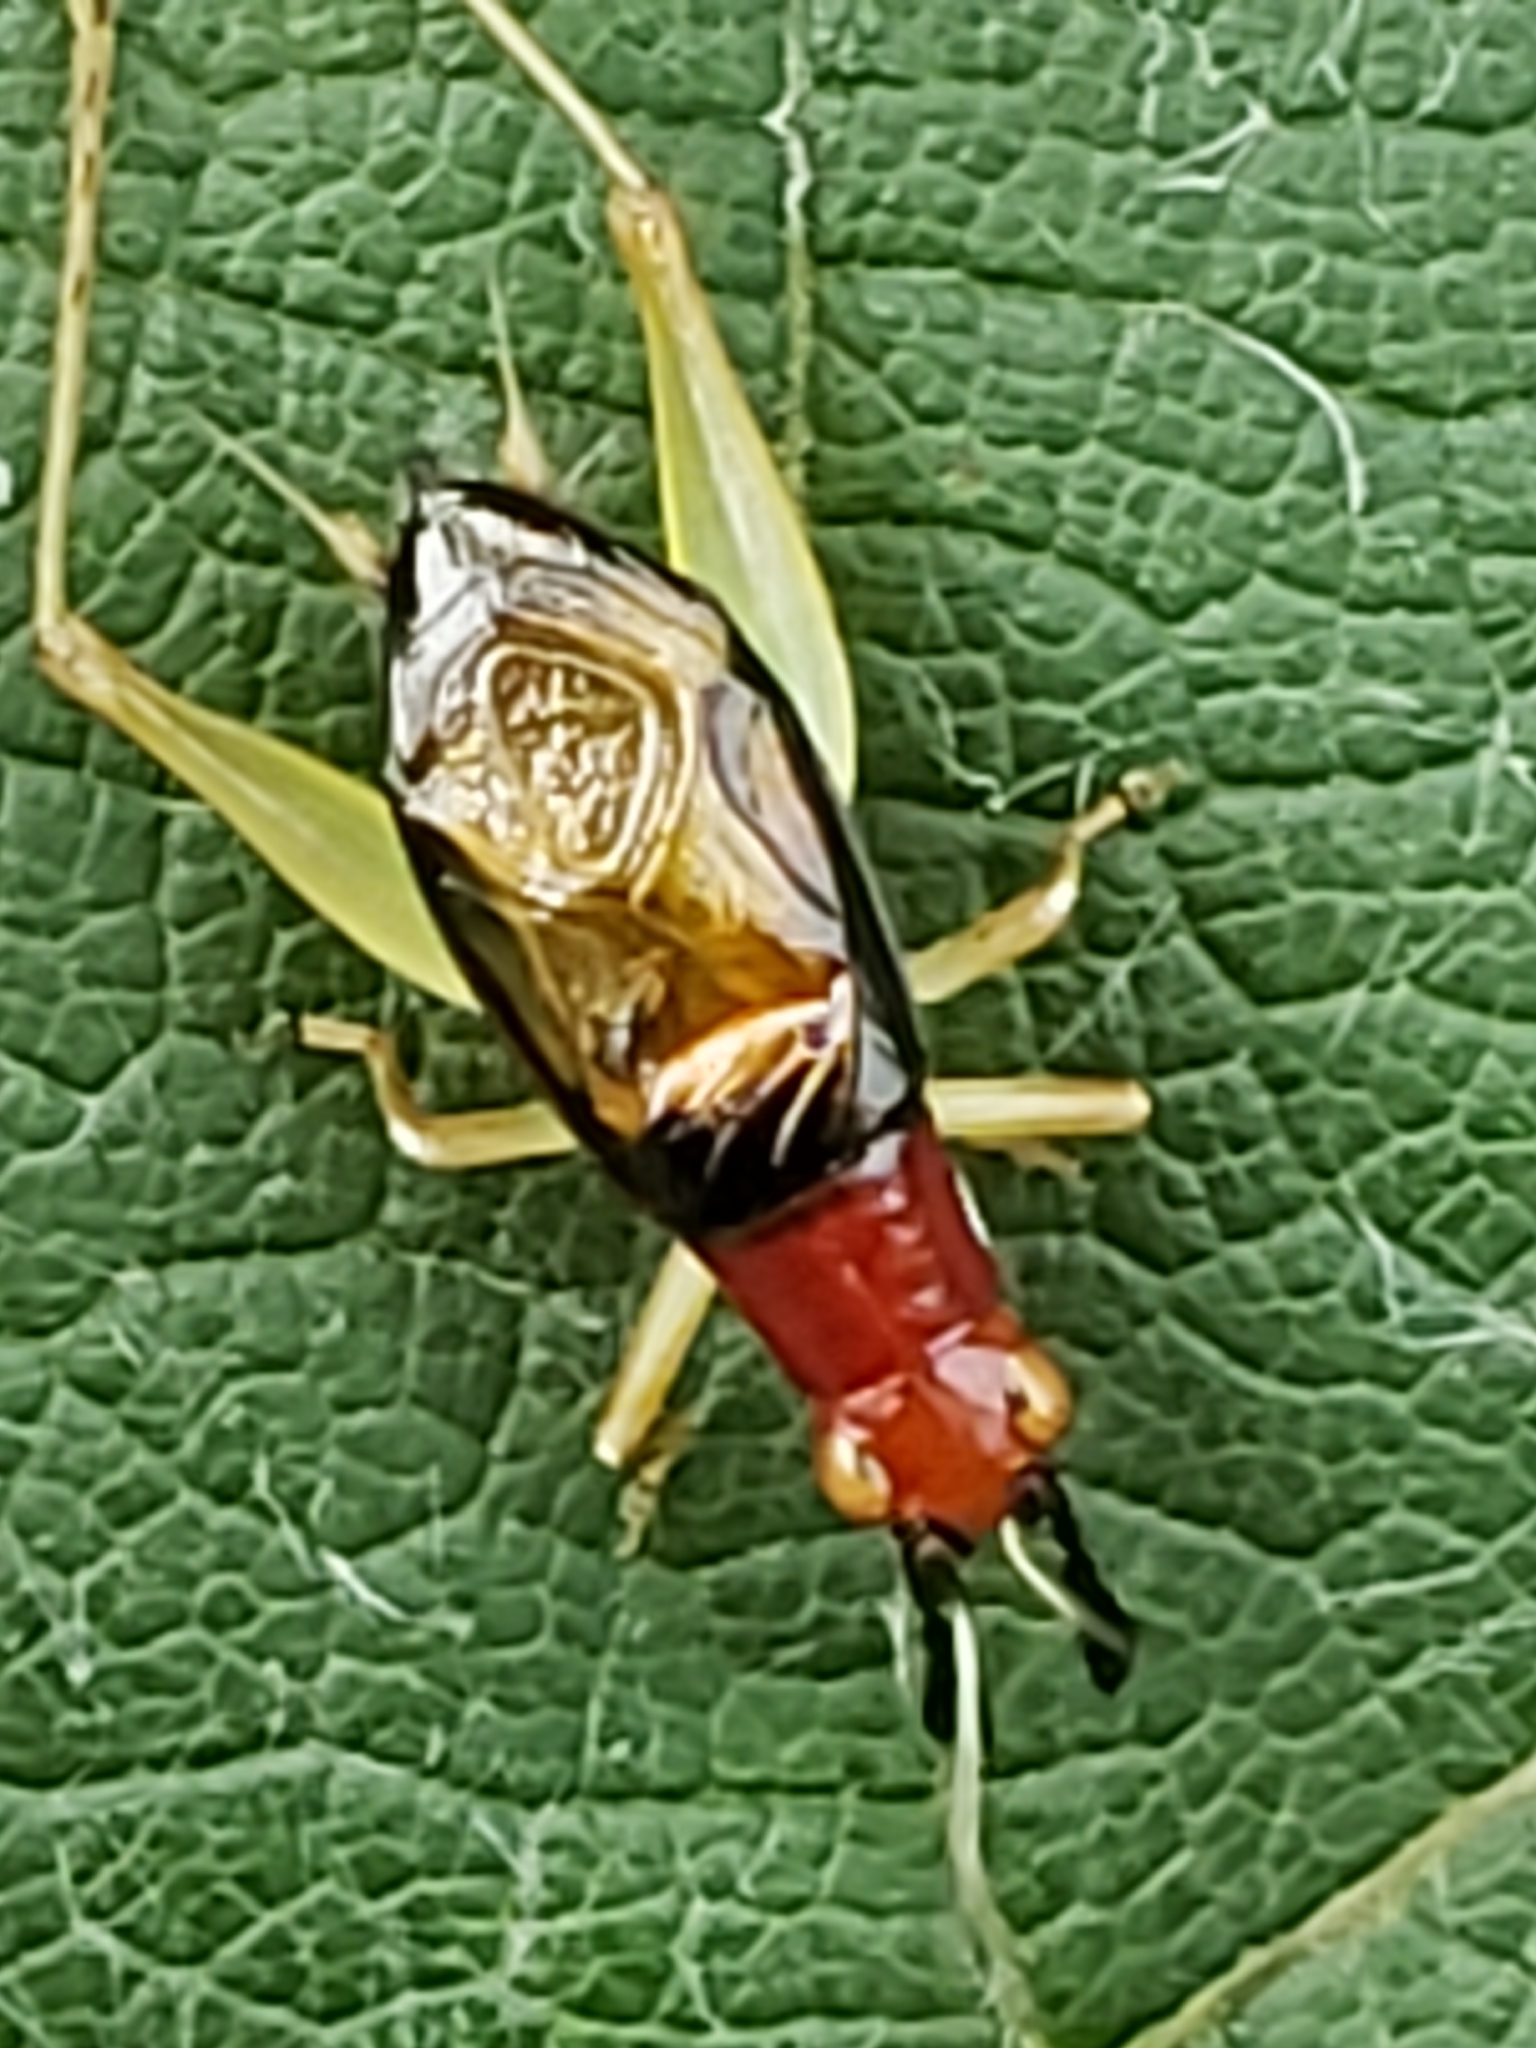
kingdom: Animalia
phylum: Arthropoda
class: Insecta
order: Orthoptera
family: Trigonidiidae
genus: Phyllopalpus
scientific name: Phyllopalpus pulchellus
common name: Handsome trig
